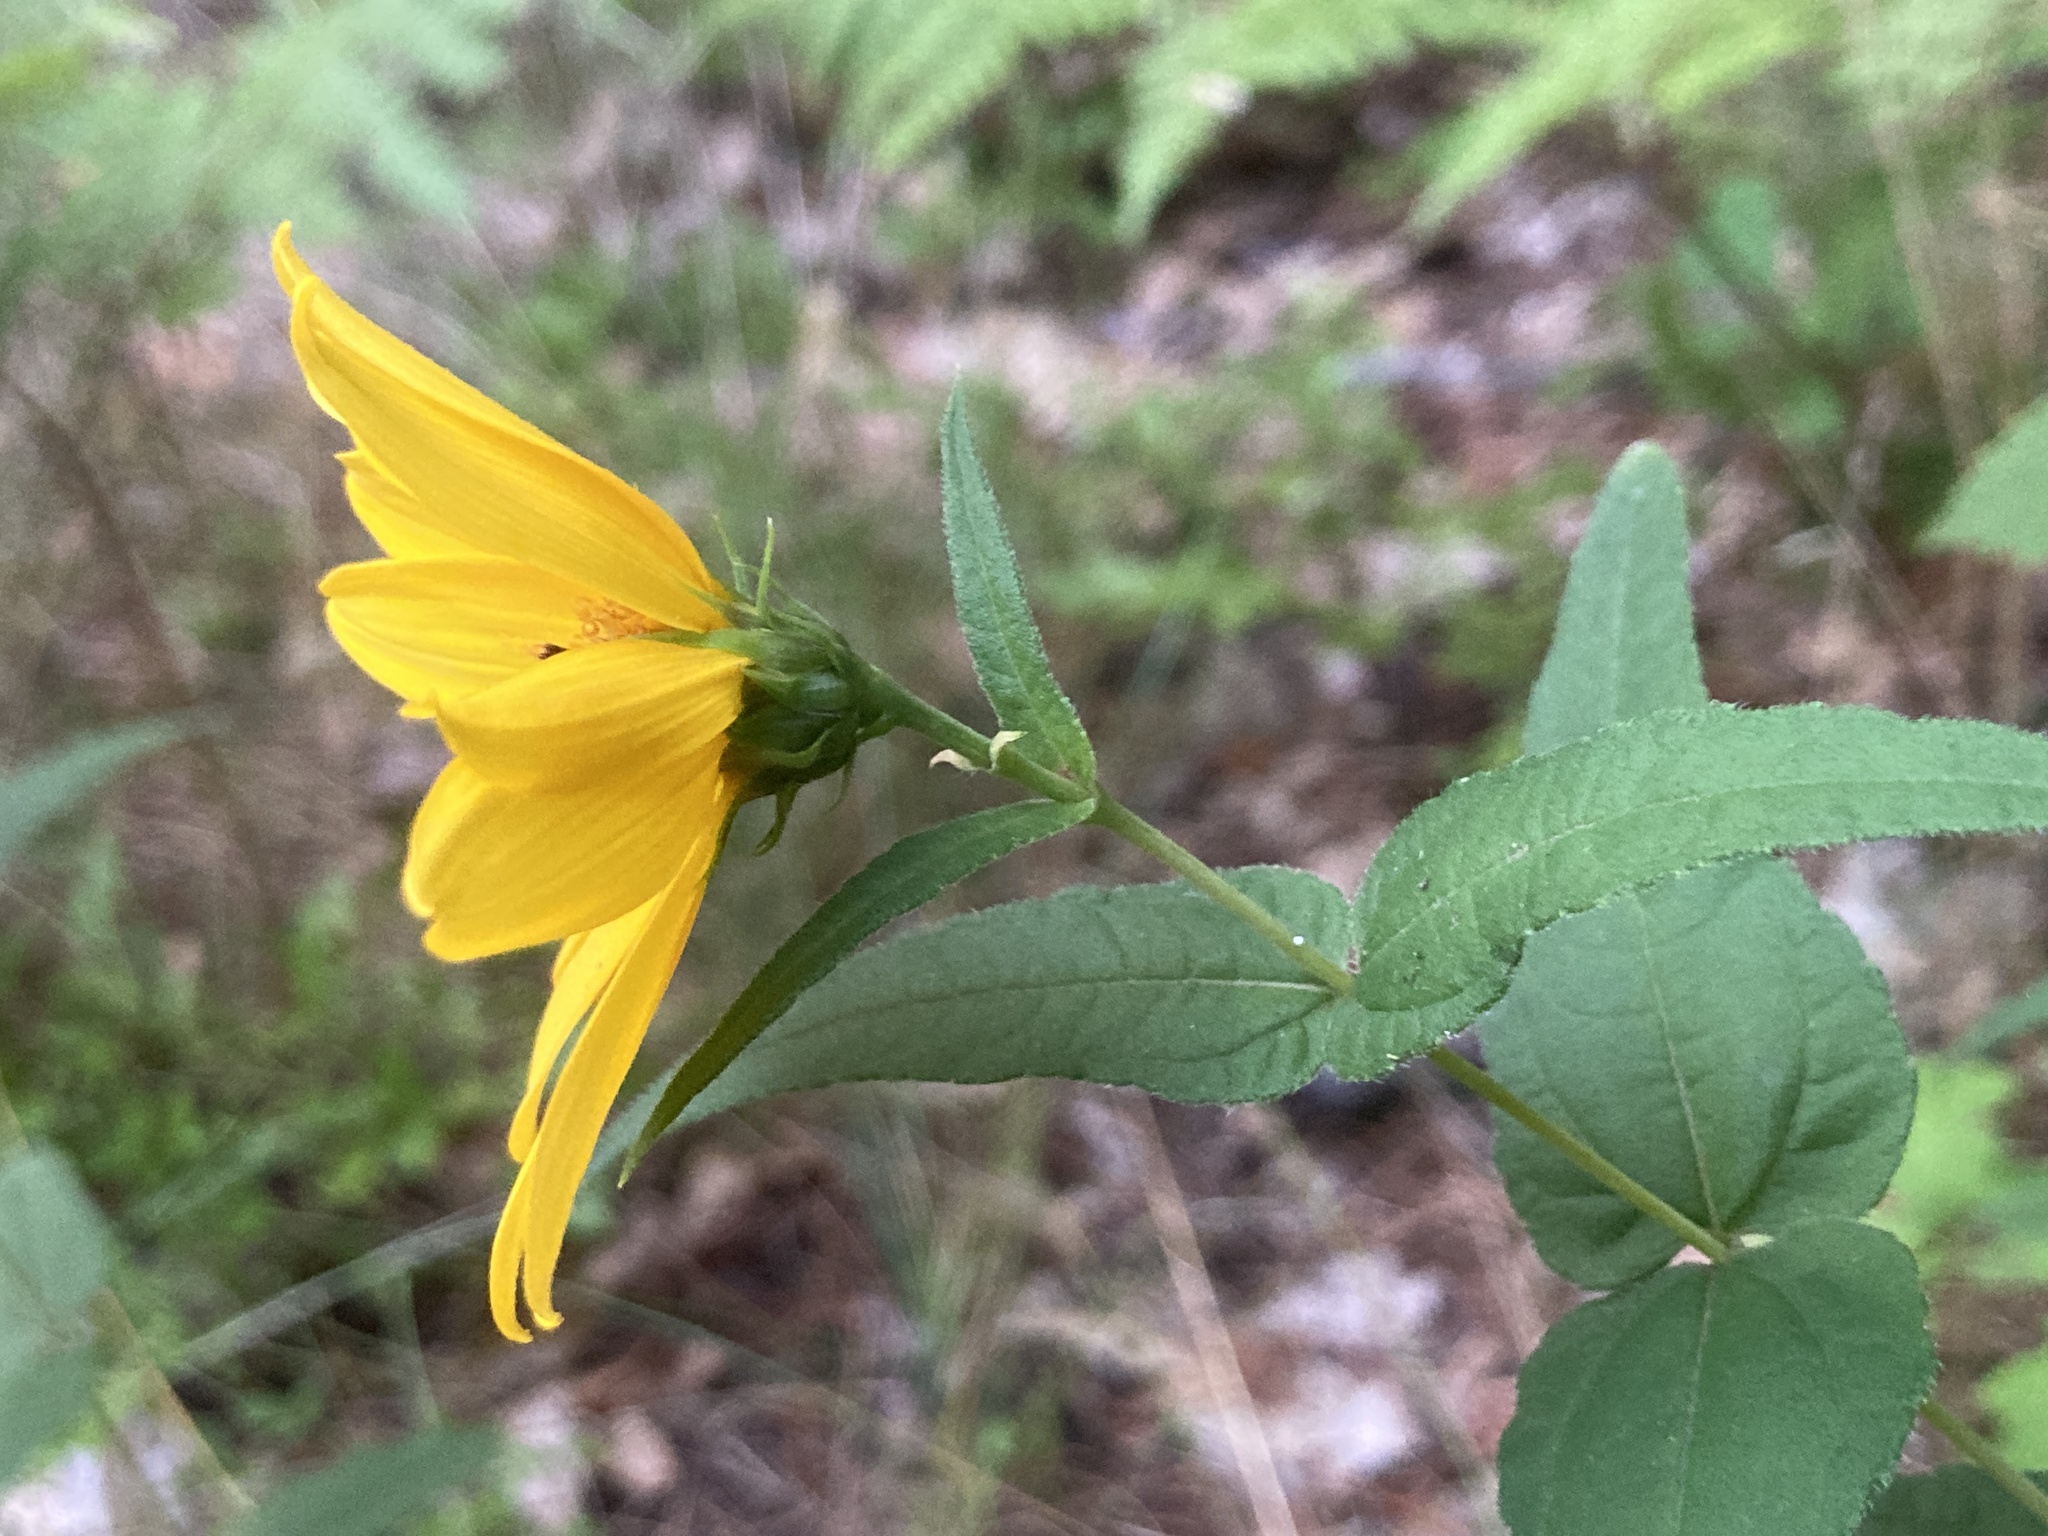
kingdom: Plantae
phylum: Tracheophyta
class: Magnoliopsida
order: Asterales
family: Asteraceae
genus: Helianthus
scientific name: Helianthus divaricatus
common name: Divergent sunflower
